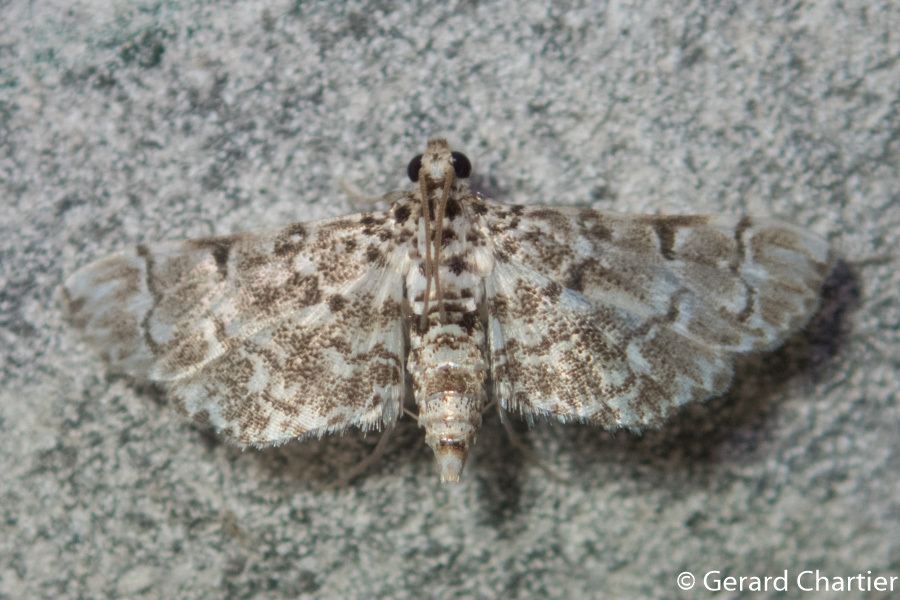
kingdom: Animalia
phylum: Arthropoda
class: Insecta
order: Lepidoptera
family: Crambidae
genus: Metoeca
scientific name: Metoeca foedalis
